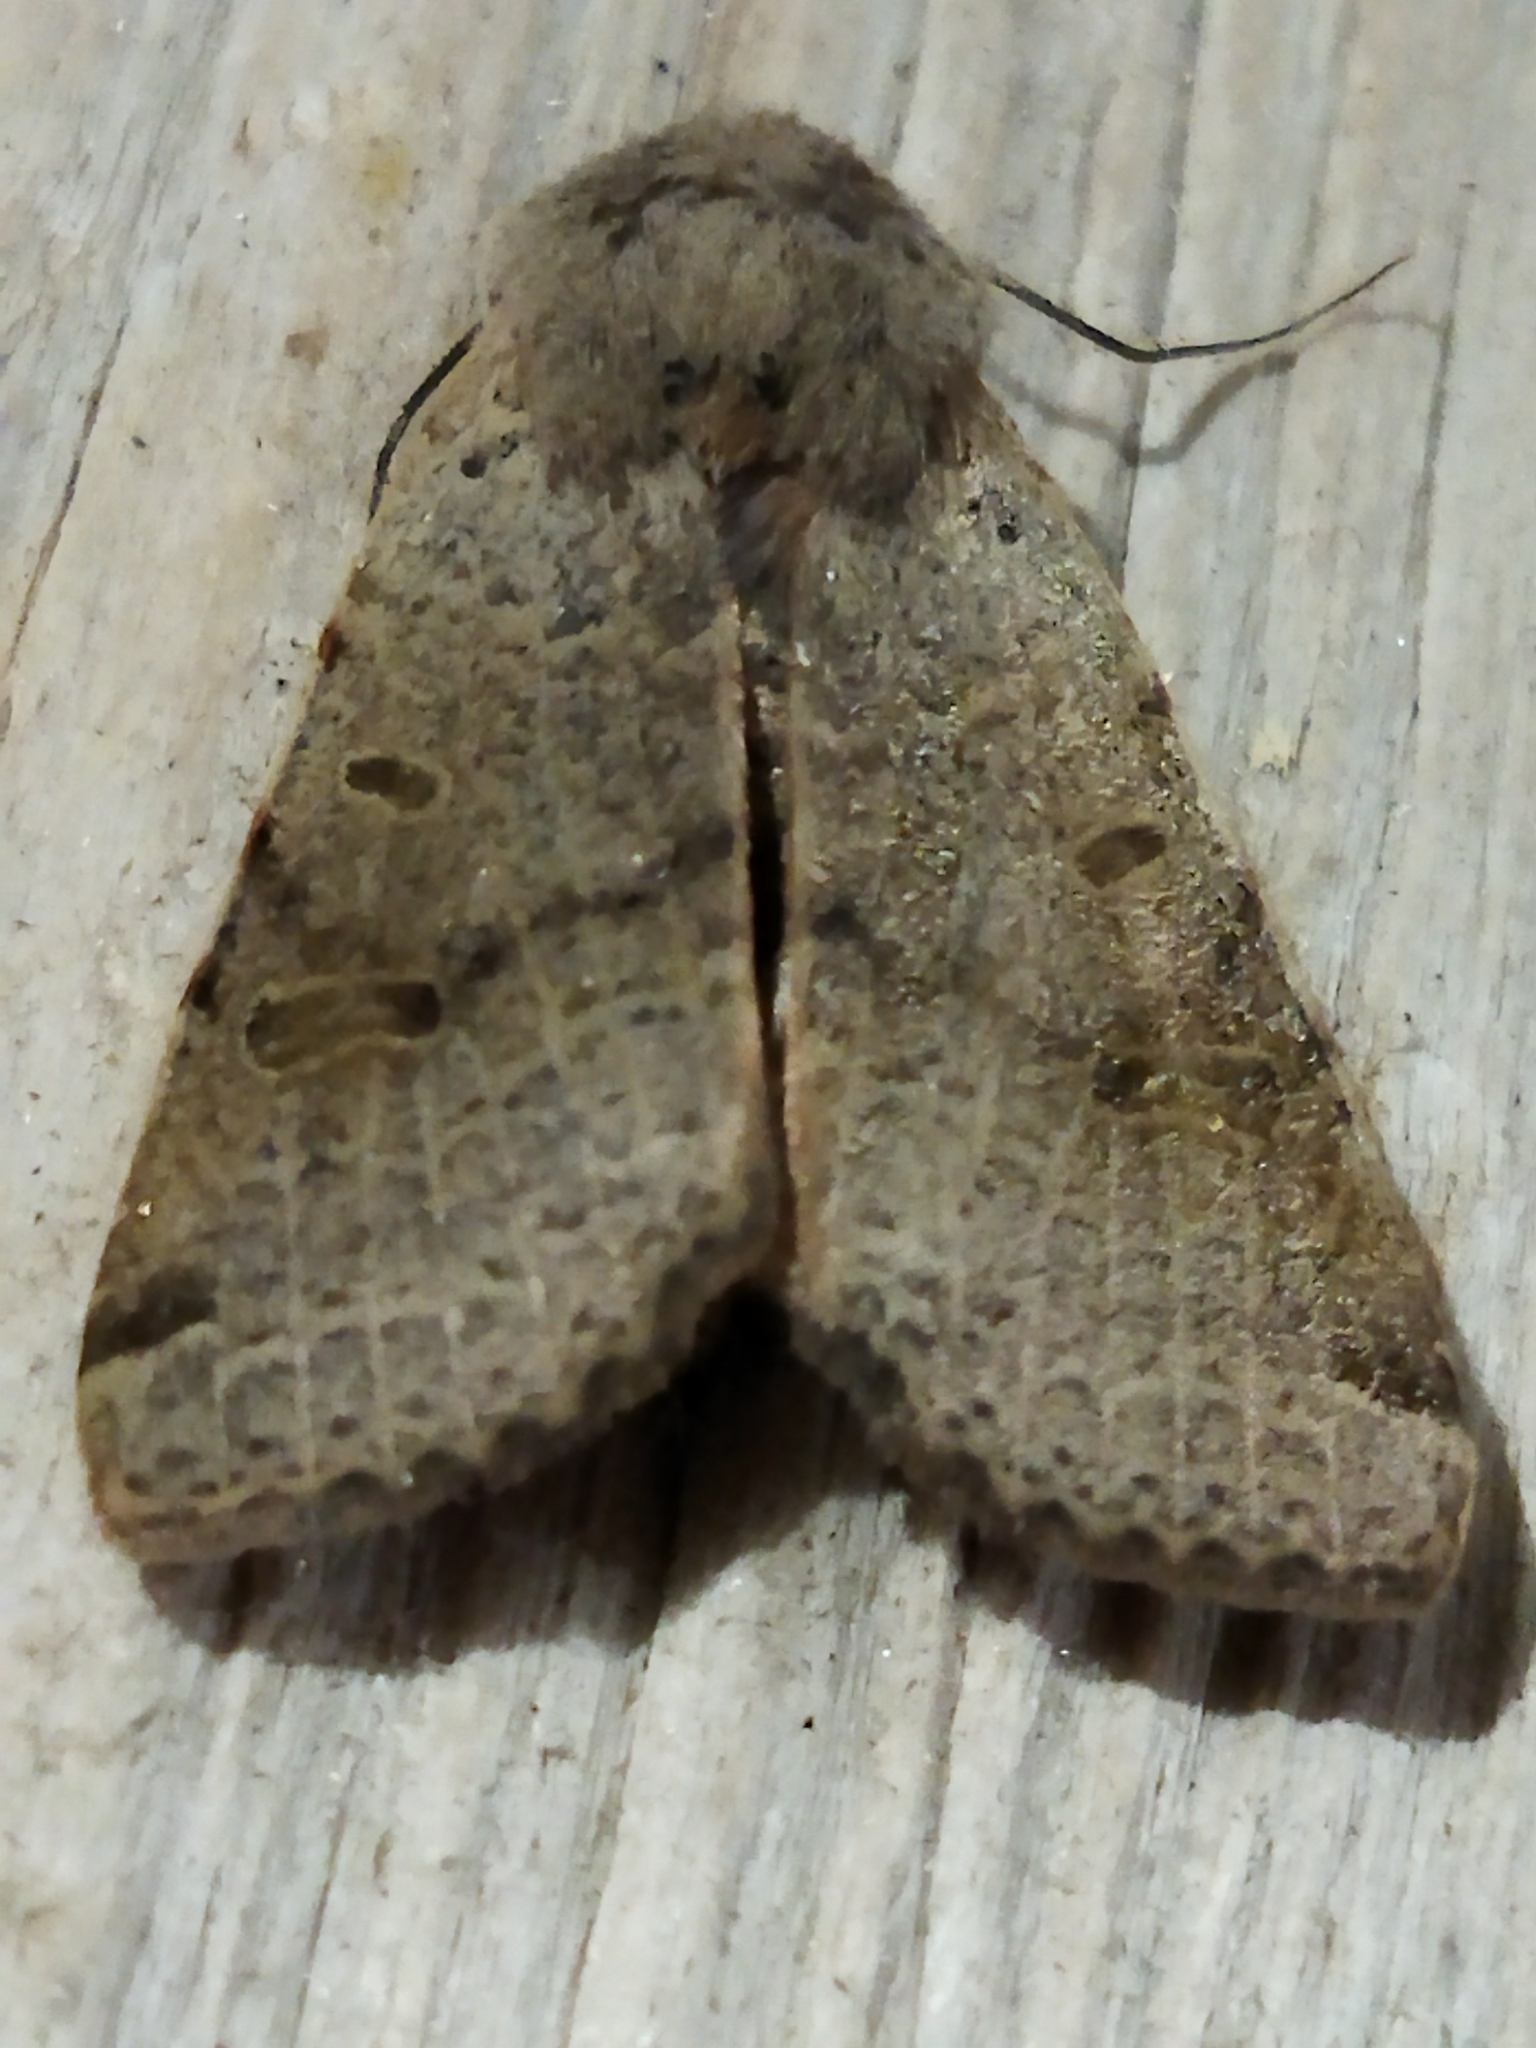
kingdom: Animalia
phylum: Arthropoda
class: Insecta
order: Lepidoptera
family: Noctuidae
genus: Agrochola
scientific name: Agrochola lychnidis
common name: Beaded chestnut
